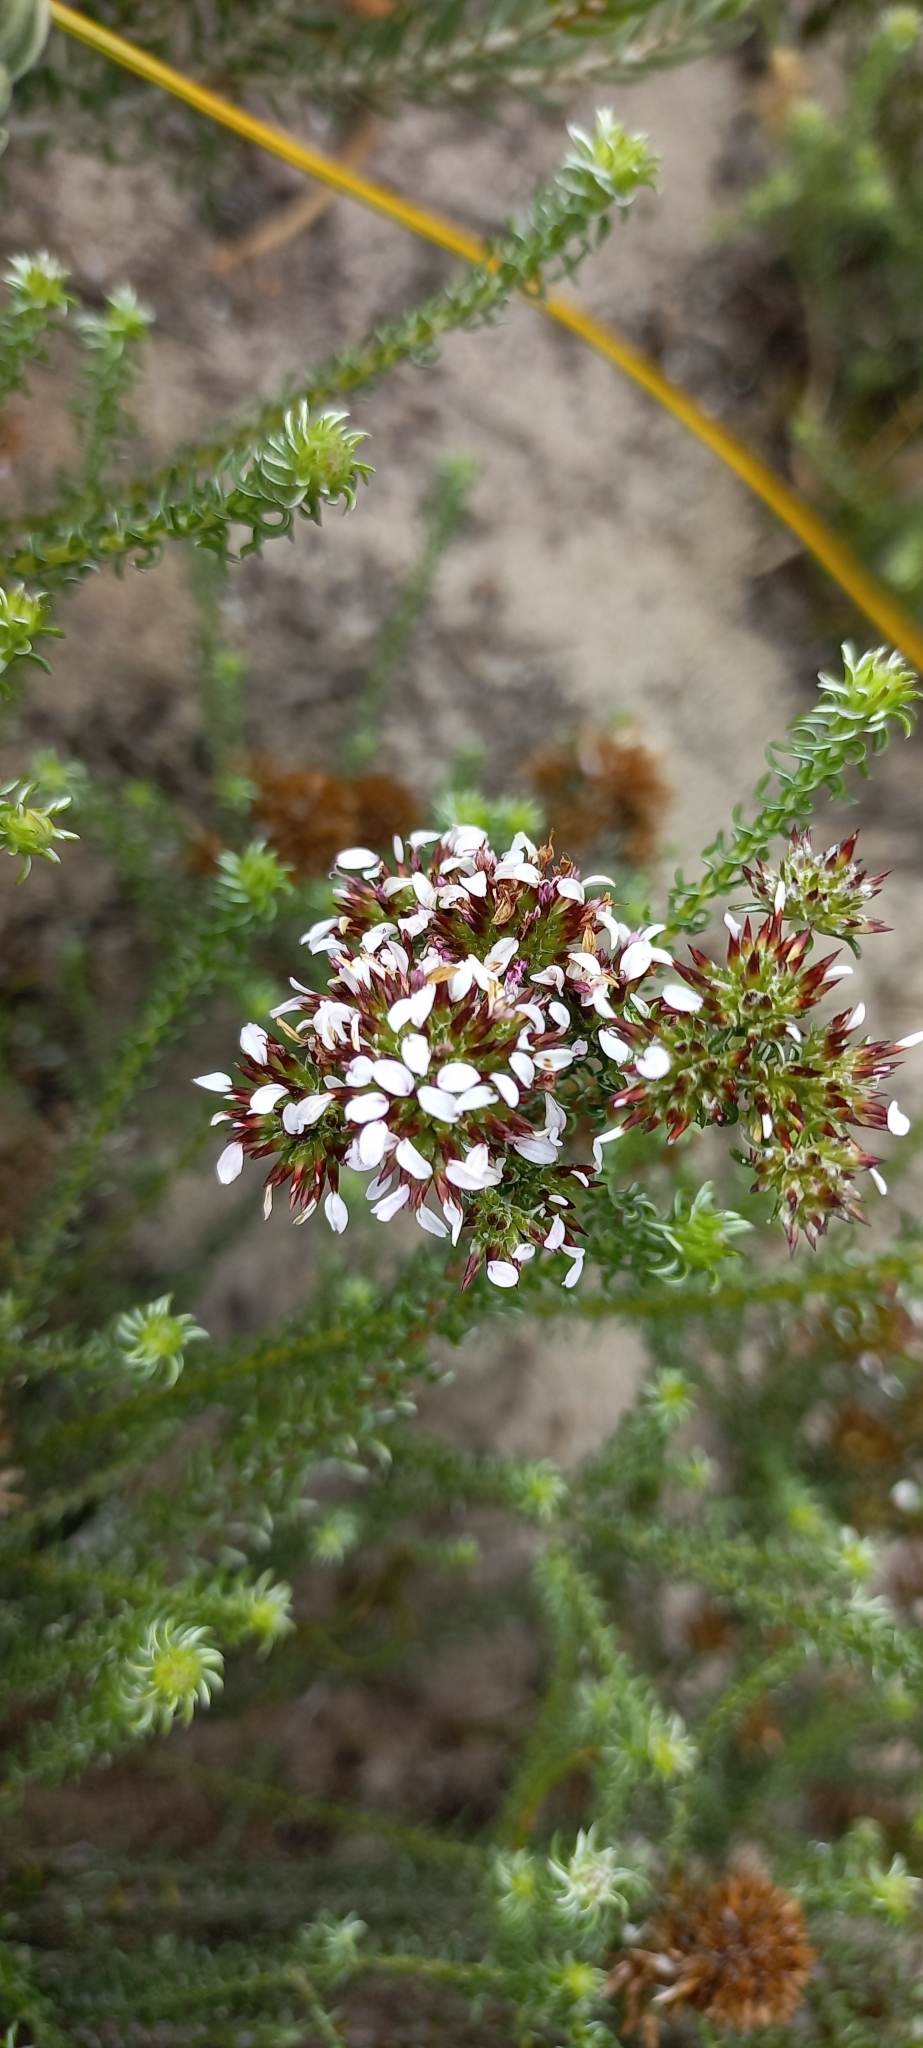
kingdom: Plantae
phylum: Tracheophyta
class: Magnoliopsida
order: Asterales
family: Asteraceae
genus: Disparago
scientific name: Disparago ericoides
